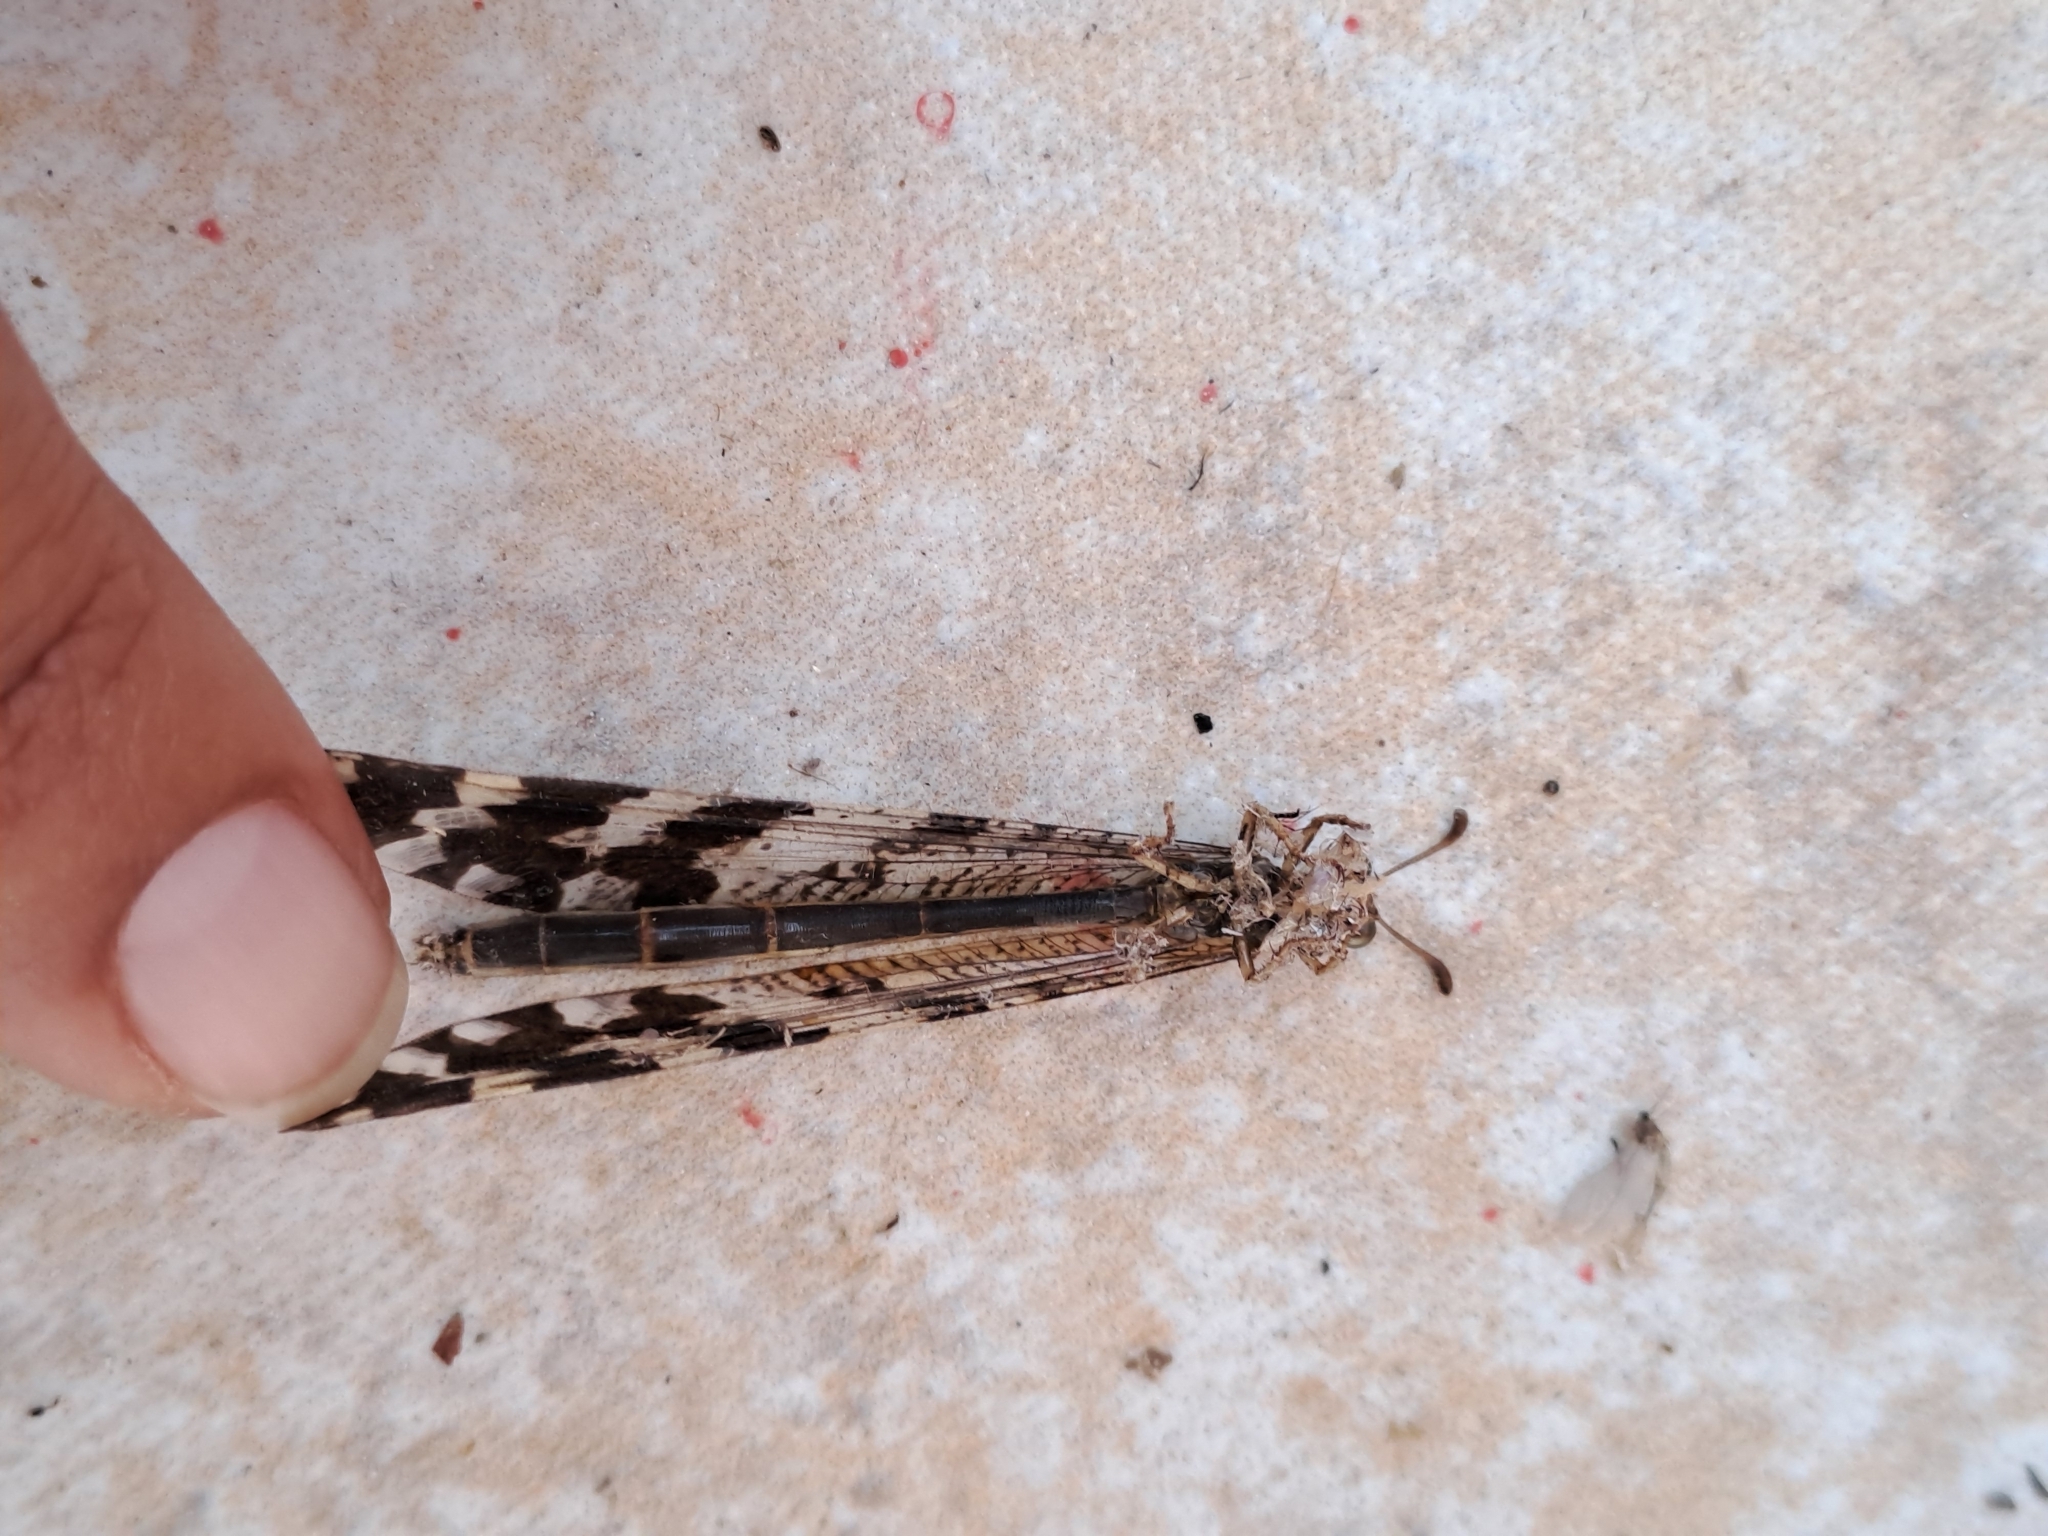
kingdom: Animalia
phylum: Arthropoda
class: Insecta
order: Neuroptera
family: Myrmeleontidae
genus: Millerleon
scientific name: Millerleon subdolus
